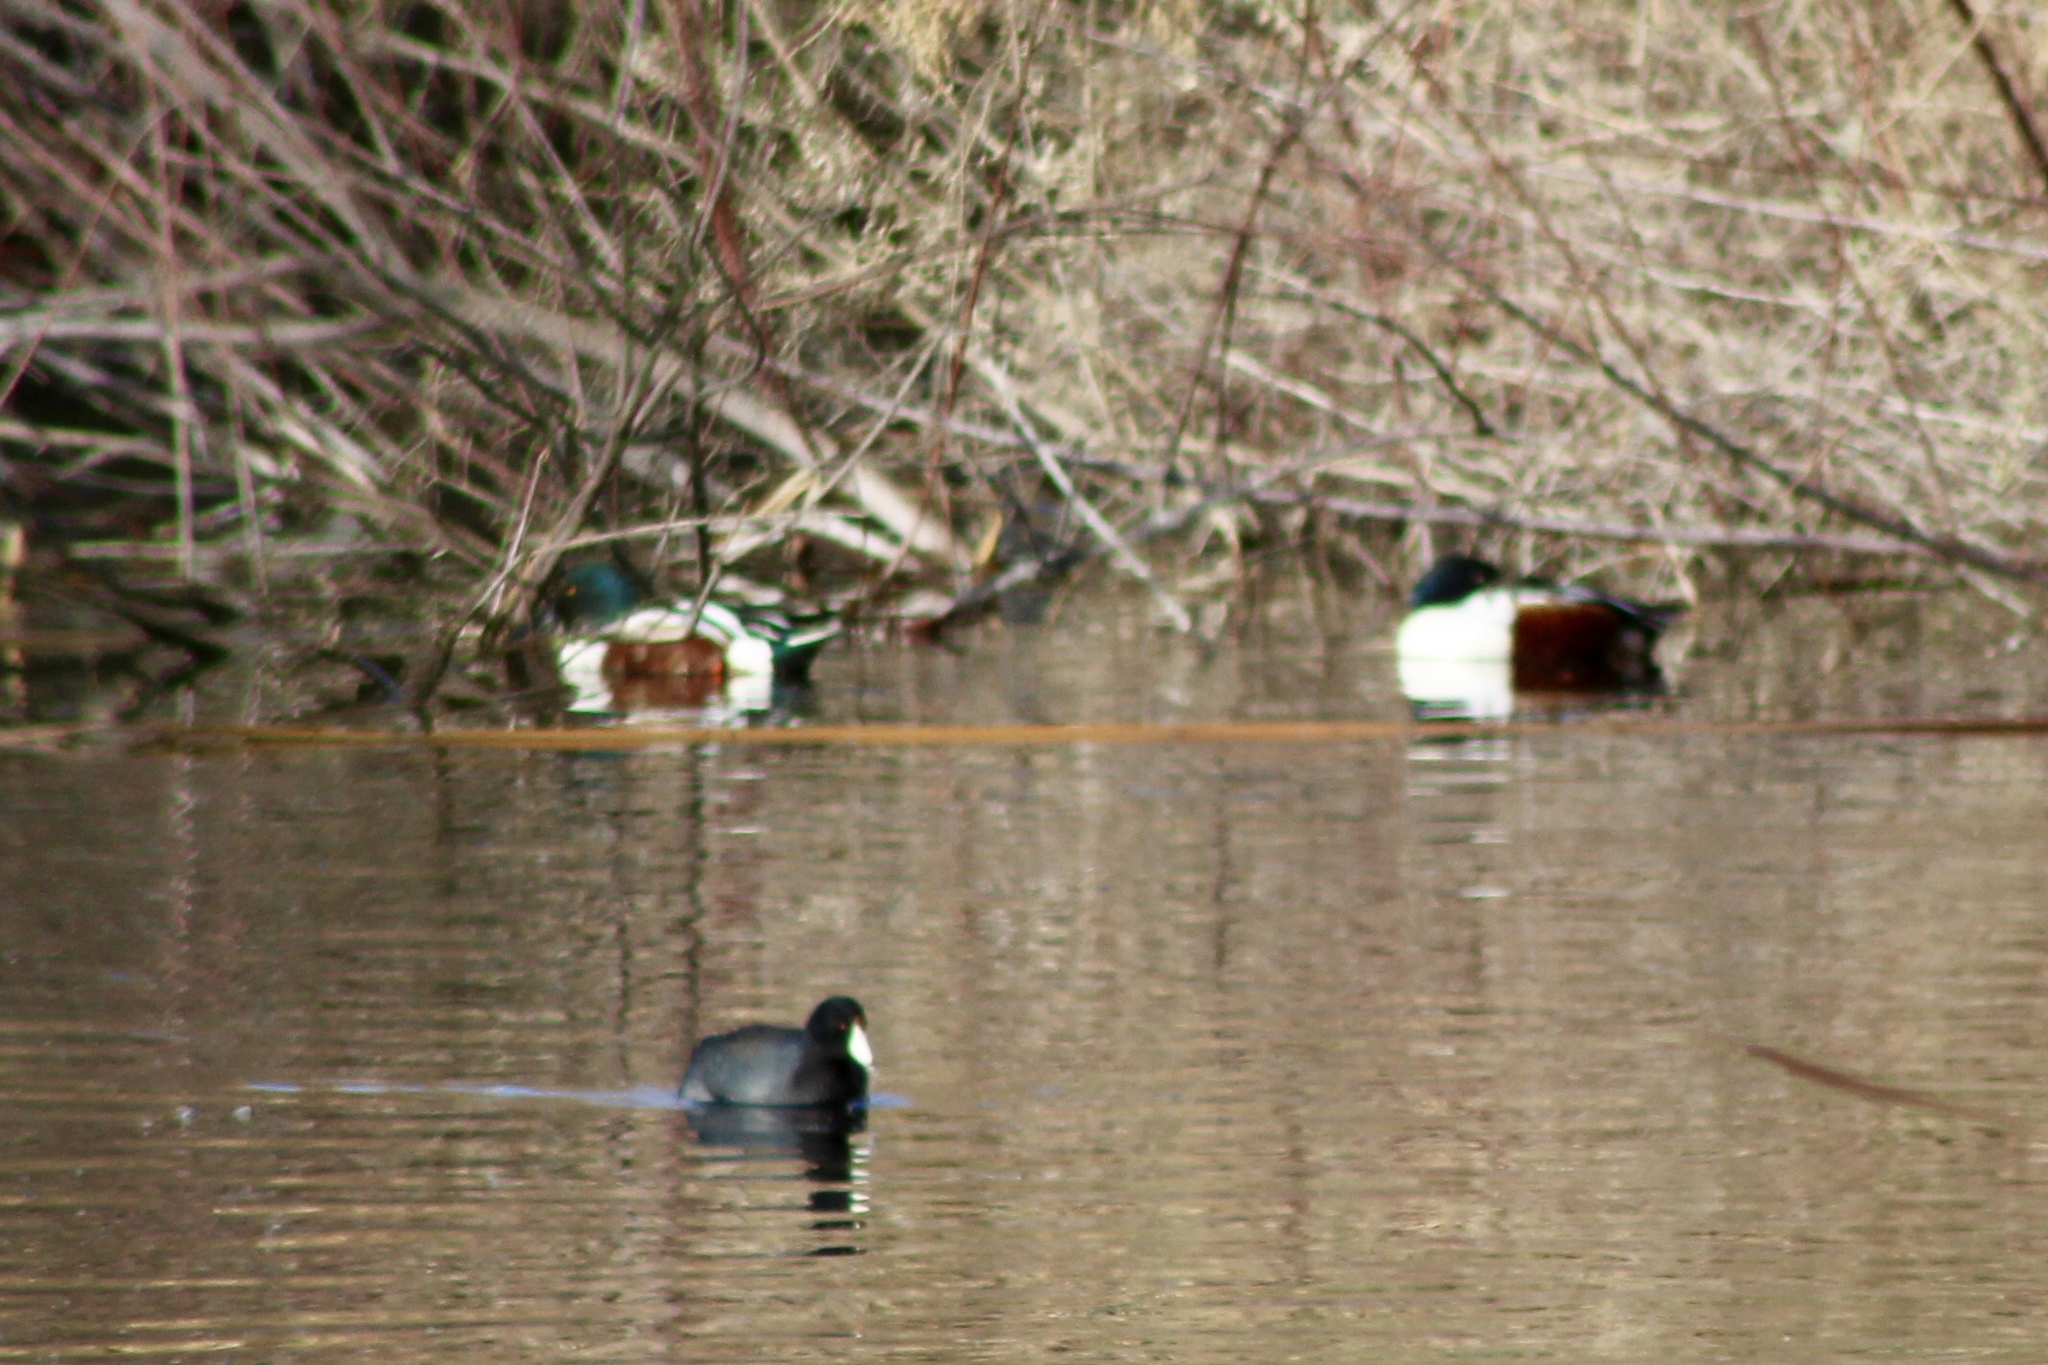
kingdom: Animalia
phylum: Chordata
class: Aves
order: Anseriformes
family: Anatidae
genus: Spatula
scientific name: Spatula clypeata
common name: Northern shoveler
